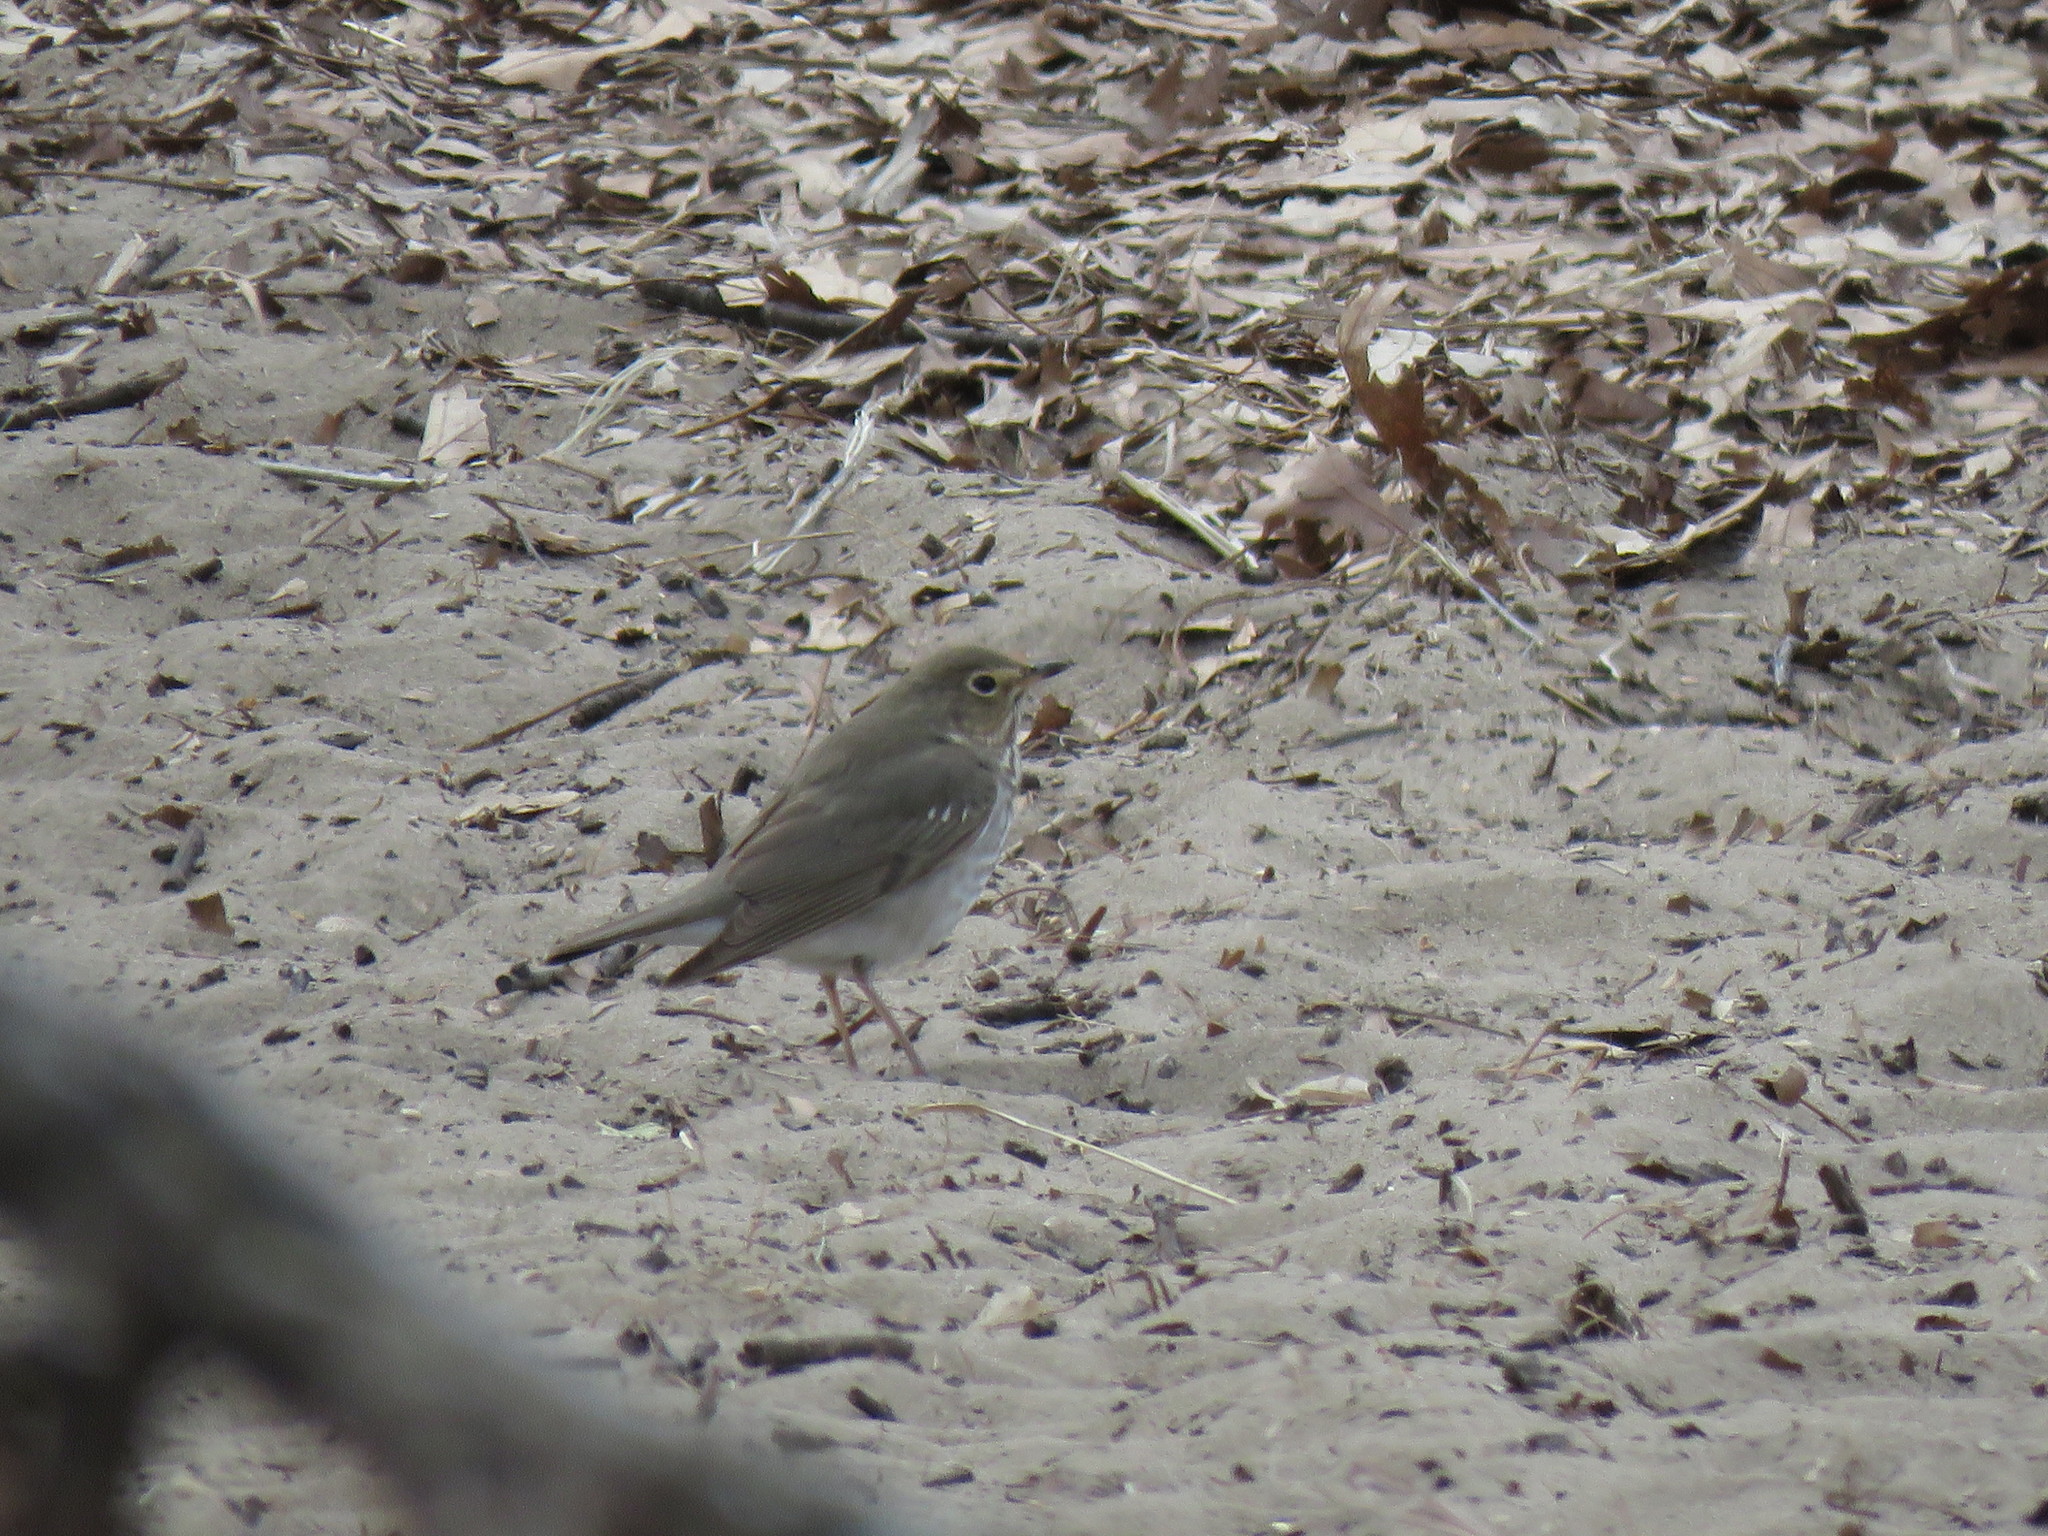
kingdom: Animalia
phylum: Chordata
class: Aves
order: Passeriformes
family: Turdidae
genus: Catharus
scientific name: Catharus ustulatus
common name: Swainson's thrush
